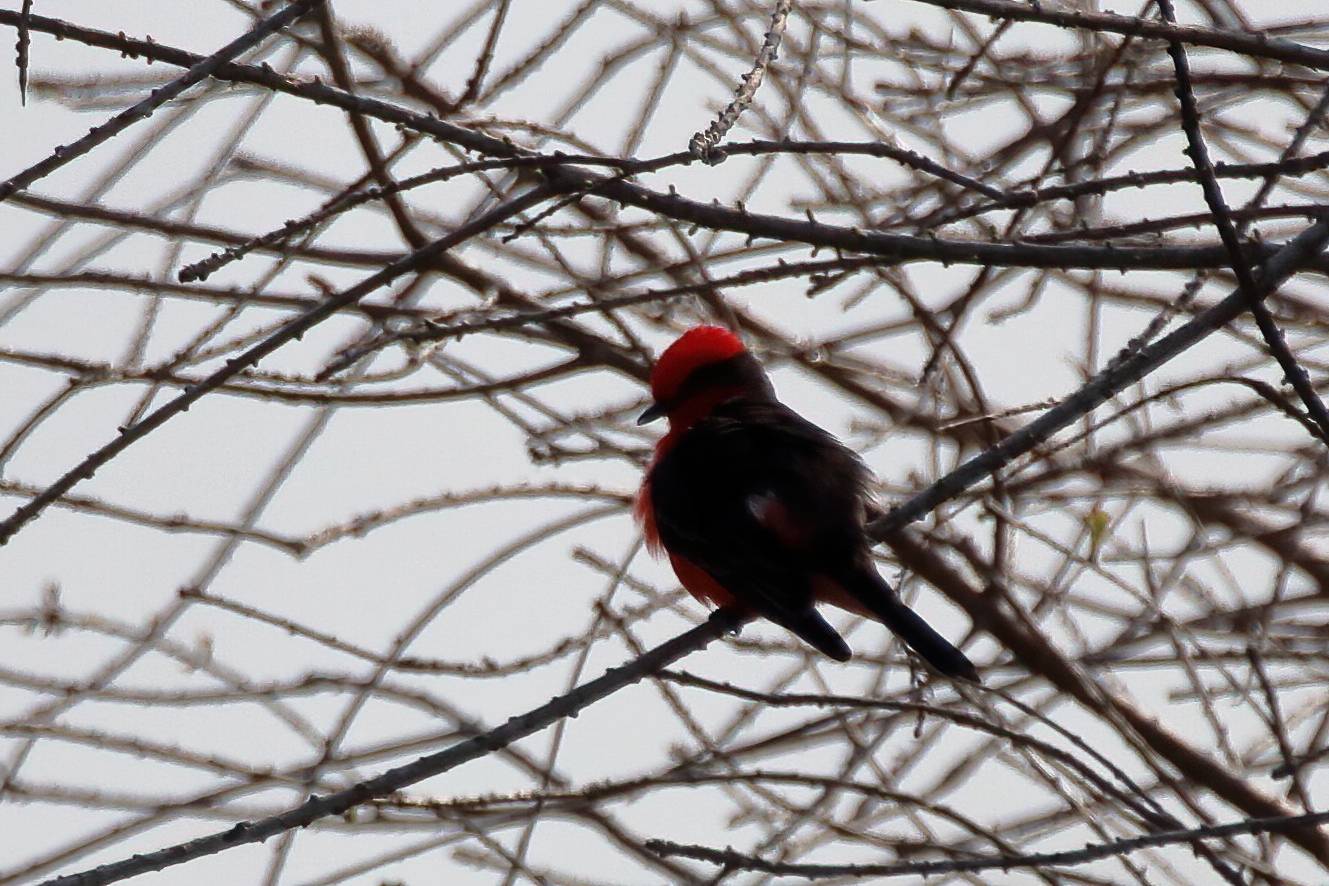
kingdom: Animalia
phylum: Chordata
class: Aves
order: Passeriformes
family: Tyrannidae
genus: Pyrocephalus
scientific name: Pyrocephalus rubinus
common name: Vermilion flycatcher
